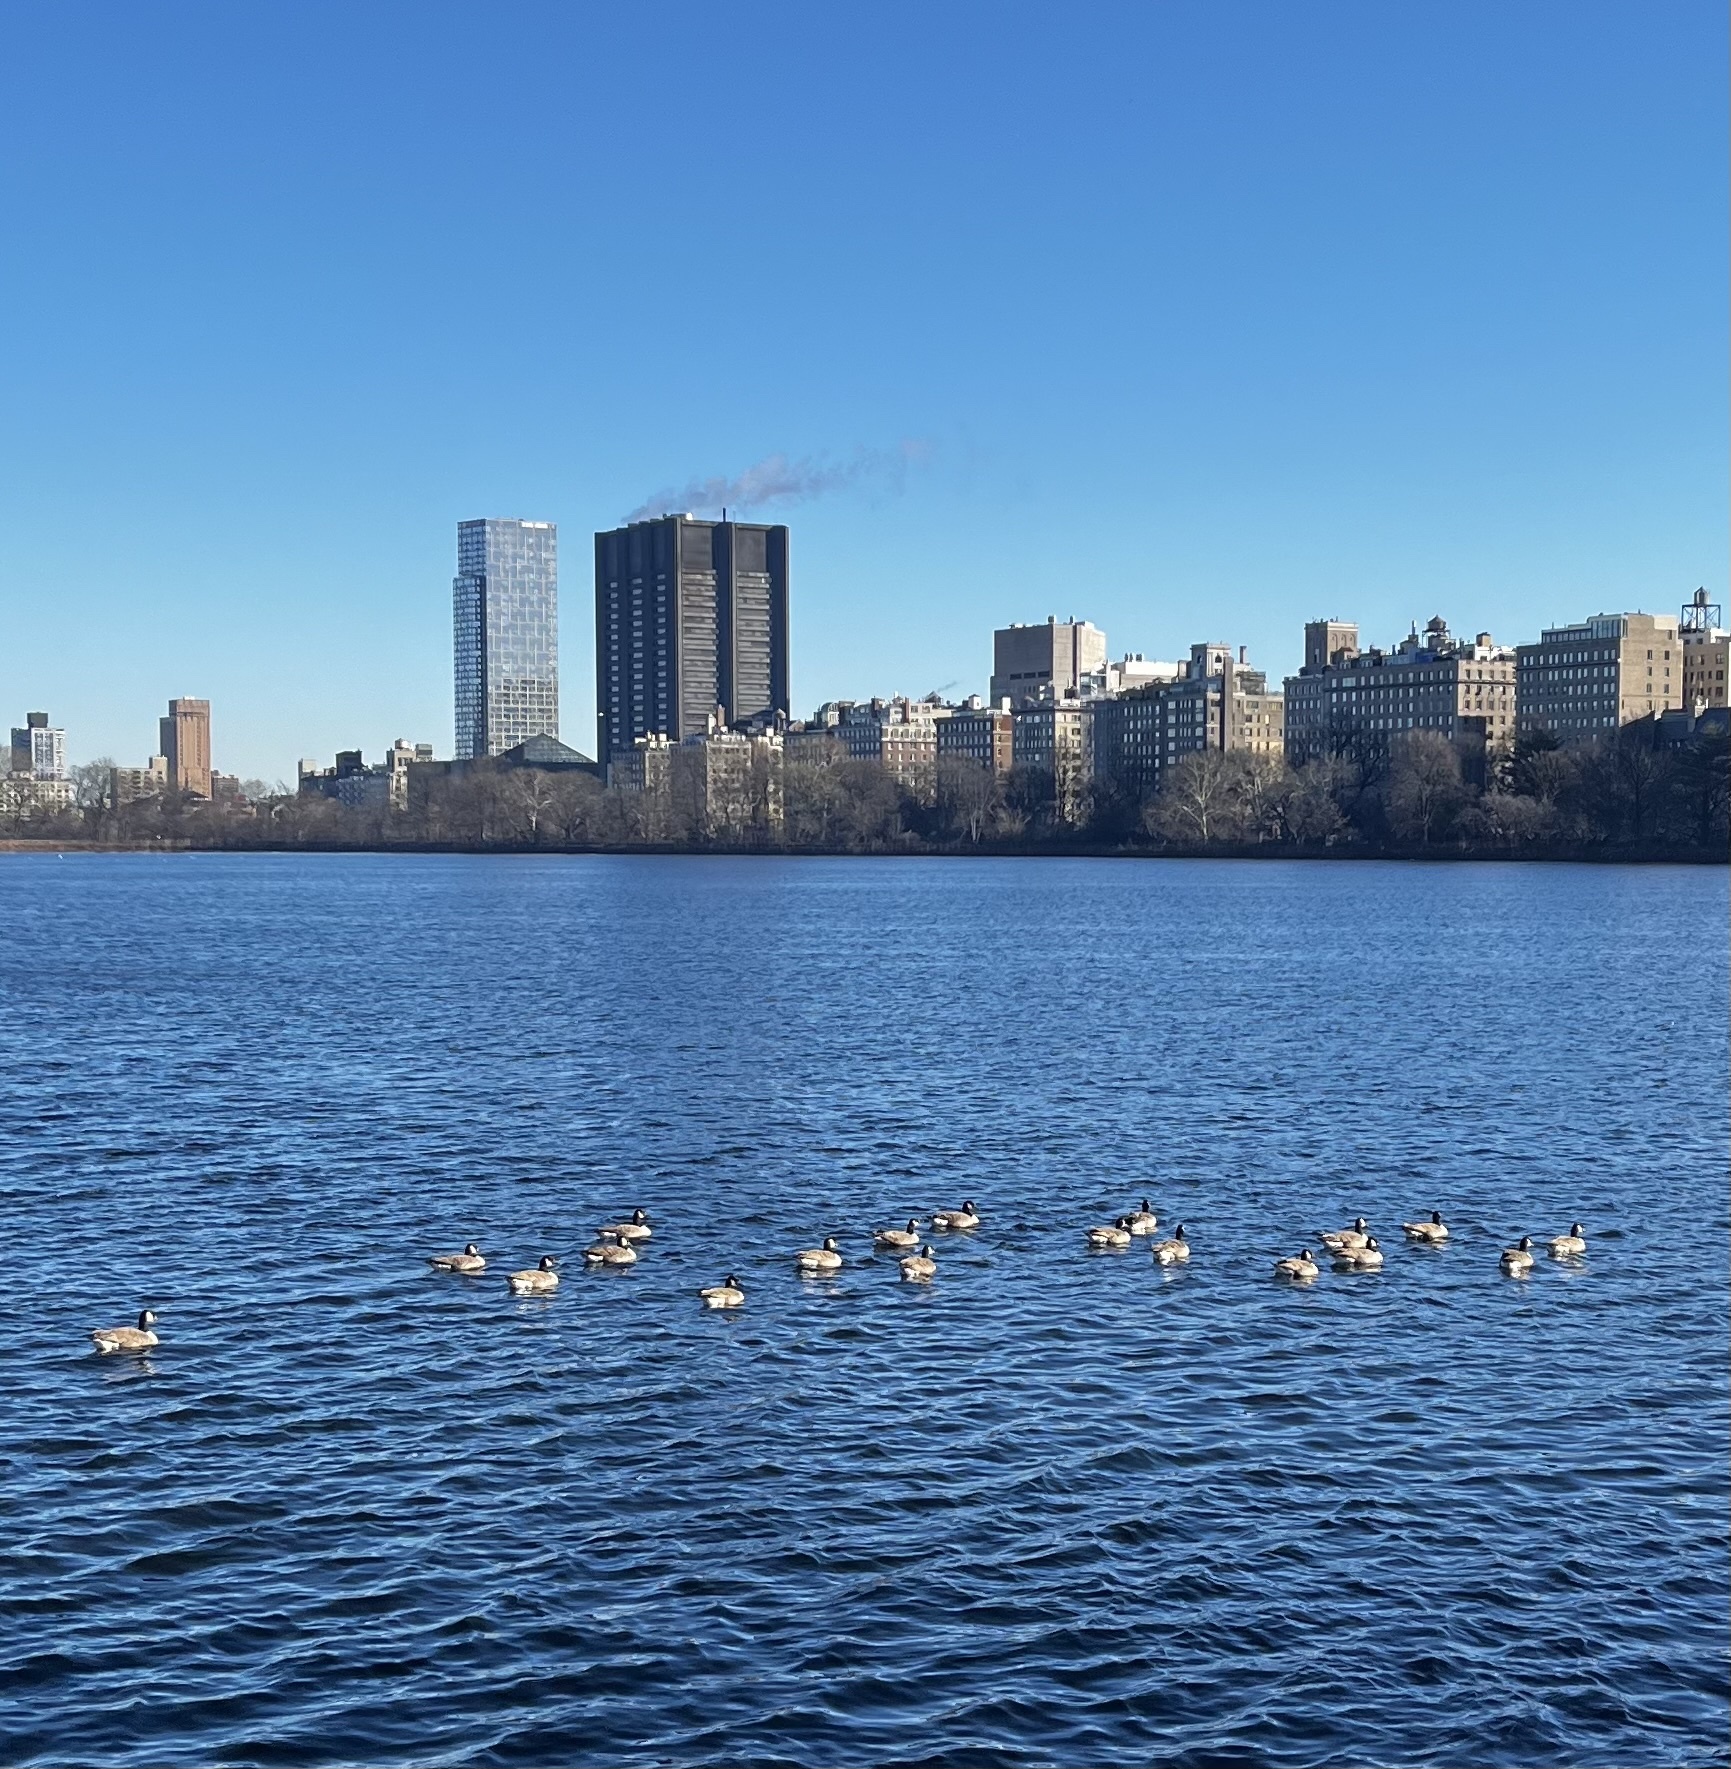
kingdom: Animalia
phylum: Chordata
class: Aves
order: Anseriformes
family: Anatidae
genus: Branta
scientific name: Branta canadensis
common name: Canada goose
